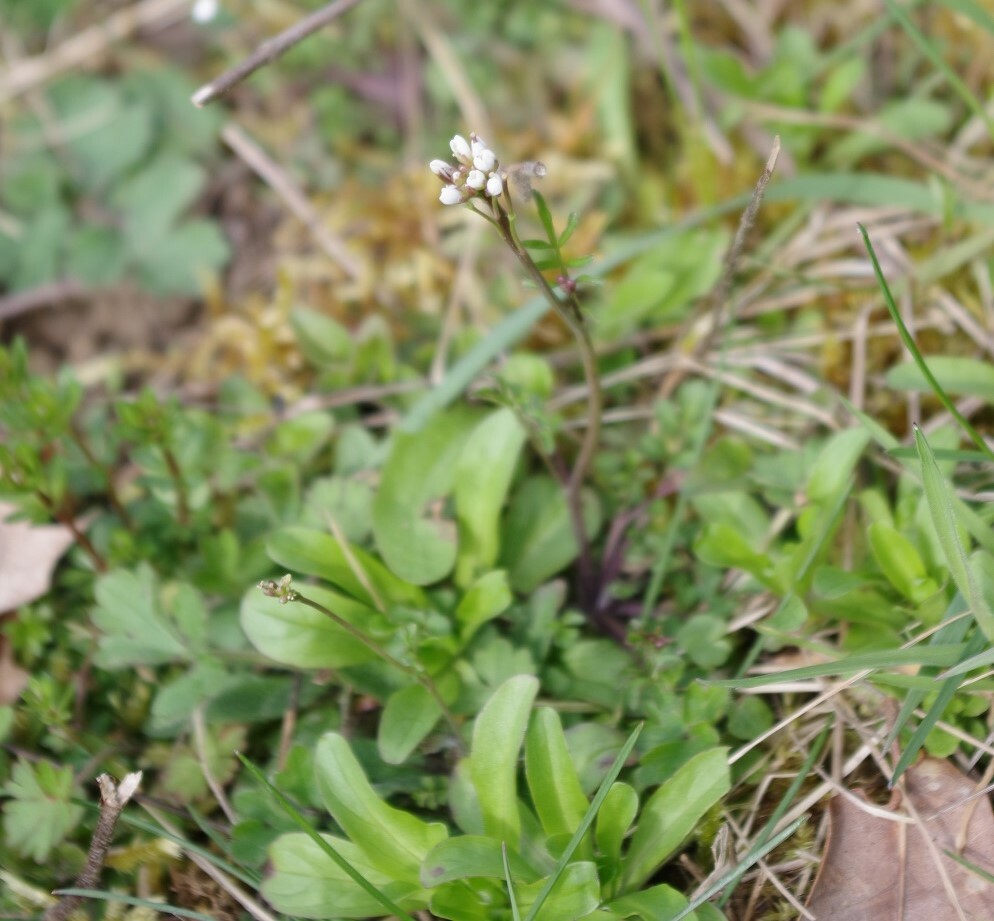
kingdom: Plantae
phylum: Tracheophyta
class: Magnoliopsida
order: Brassicales
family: Brassicaceae
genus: Cardamine
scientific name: Cardamine hirsuta
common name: Hairy bittercress
